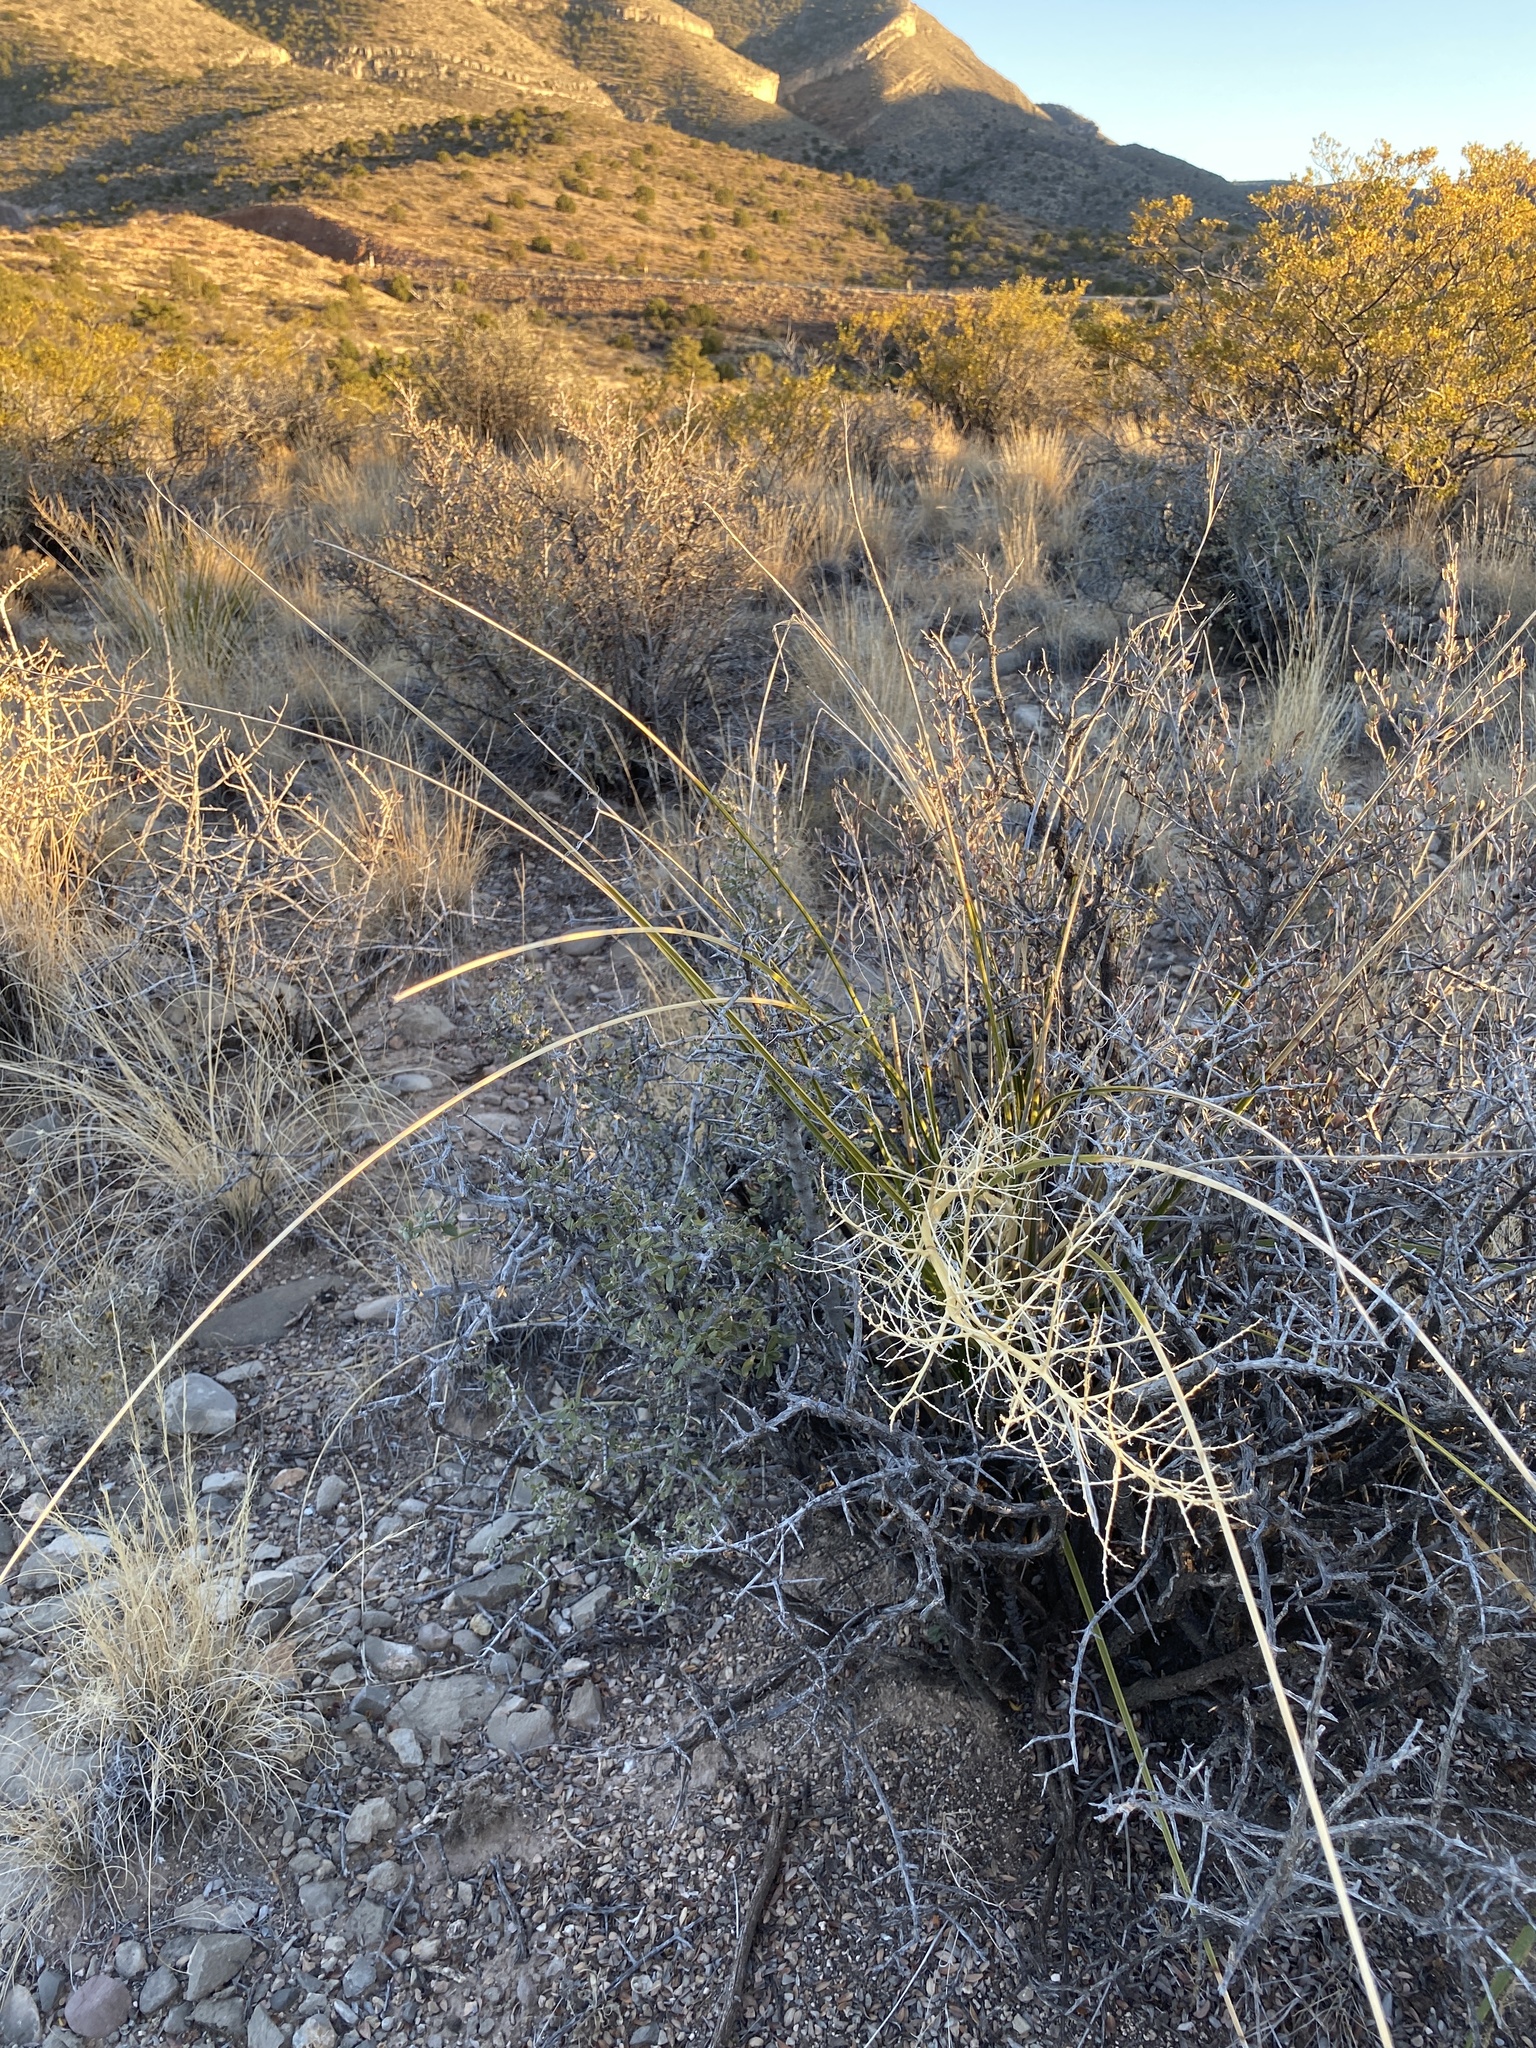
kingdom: Plantae
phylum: Tracheophyta
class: Liliopsida
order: Asparagales
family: Asparagaceae
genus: Nolina
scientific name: Nolina microcarpa
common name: Bear-grass
